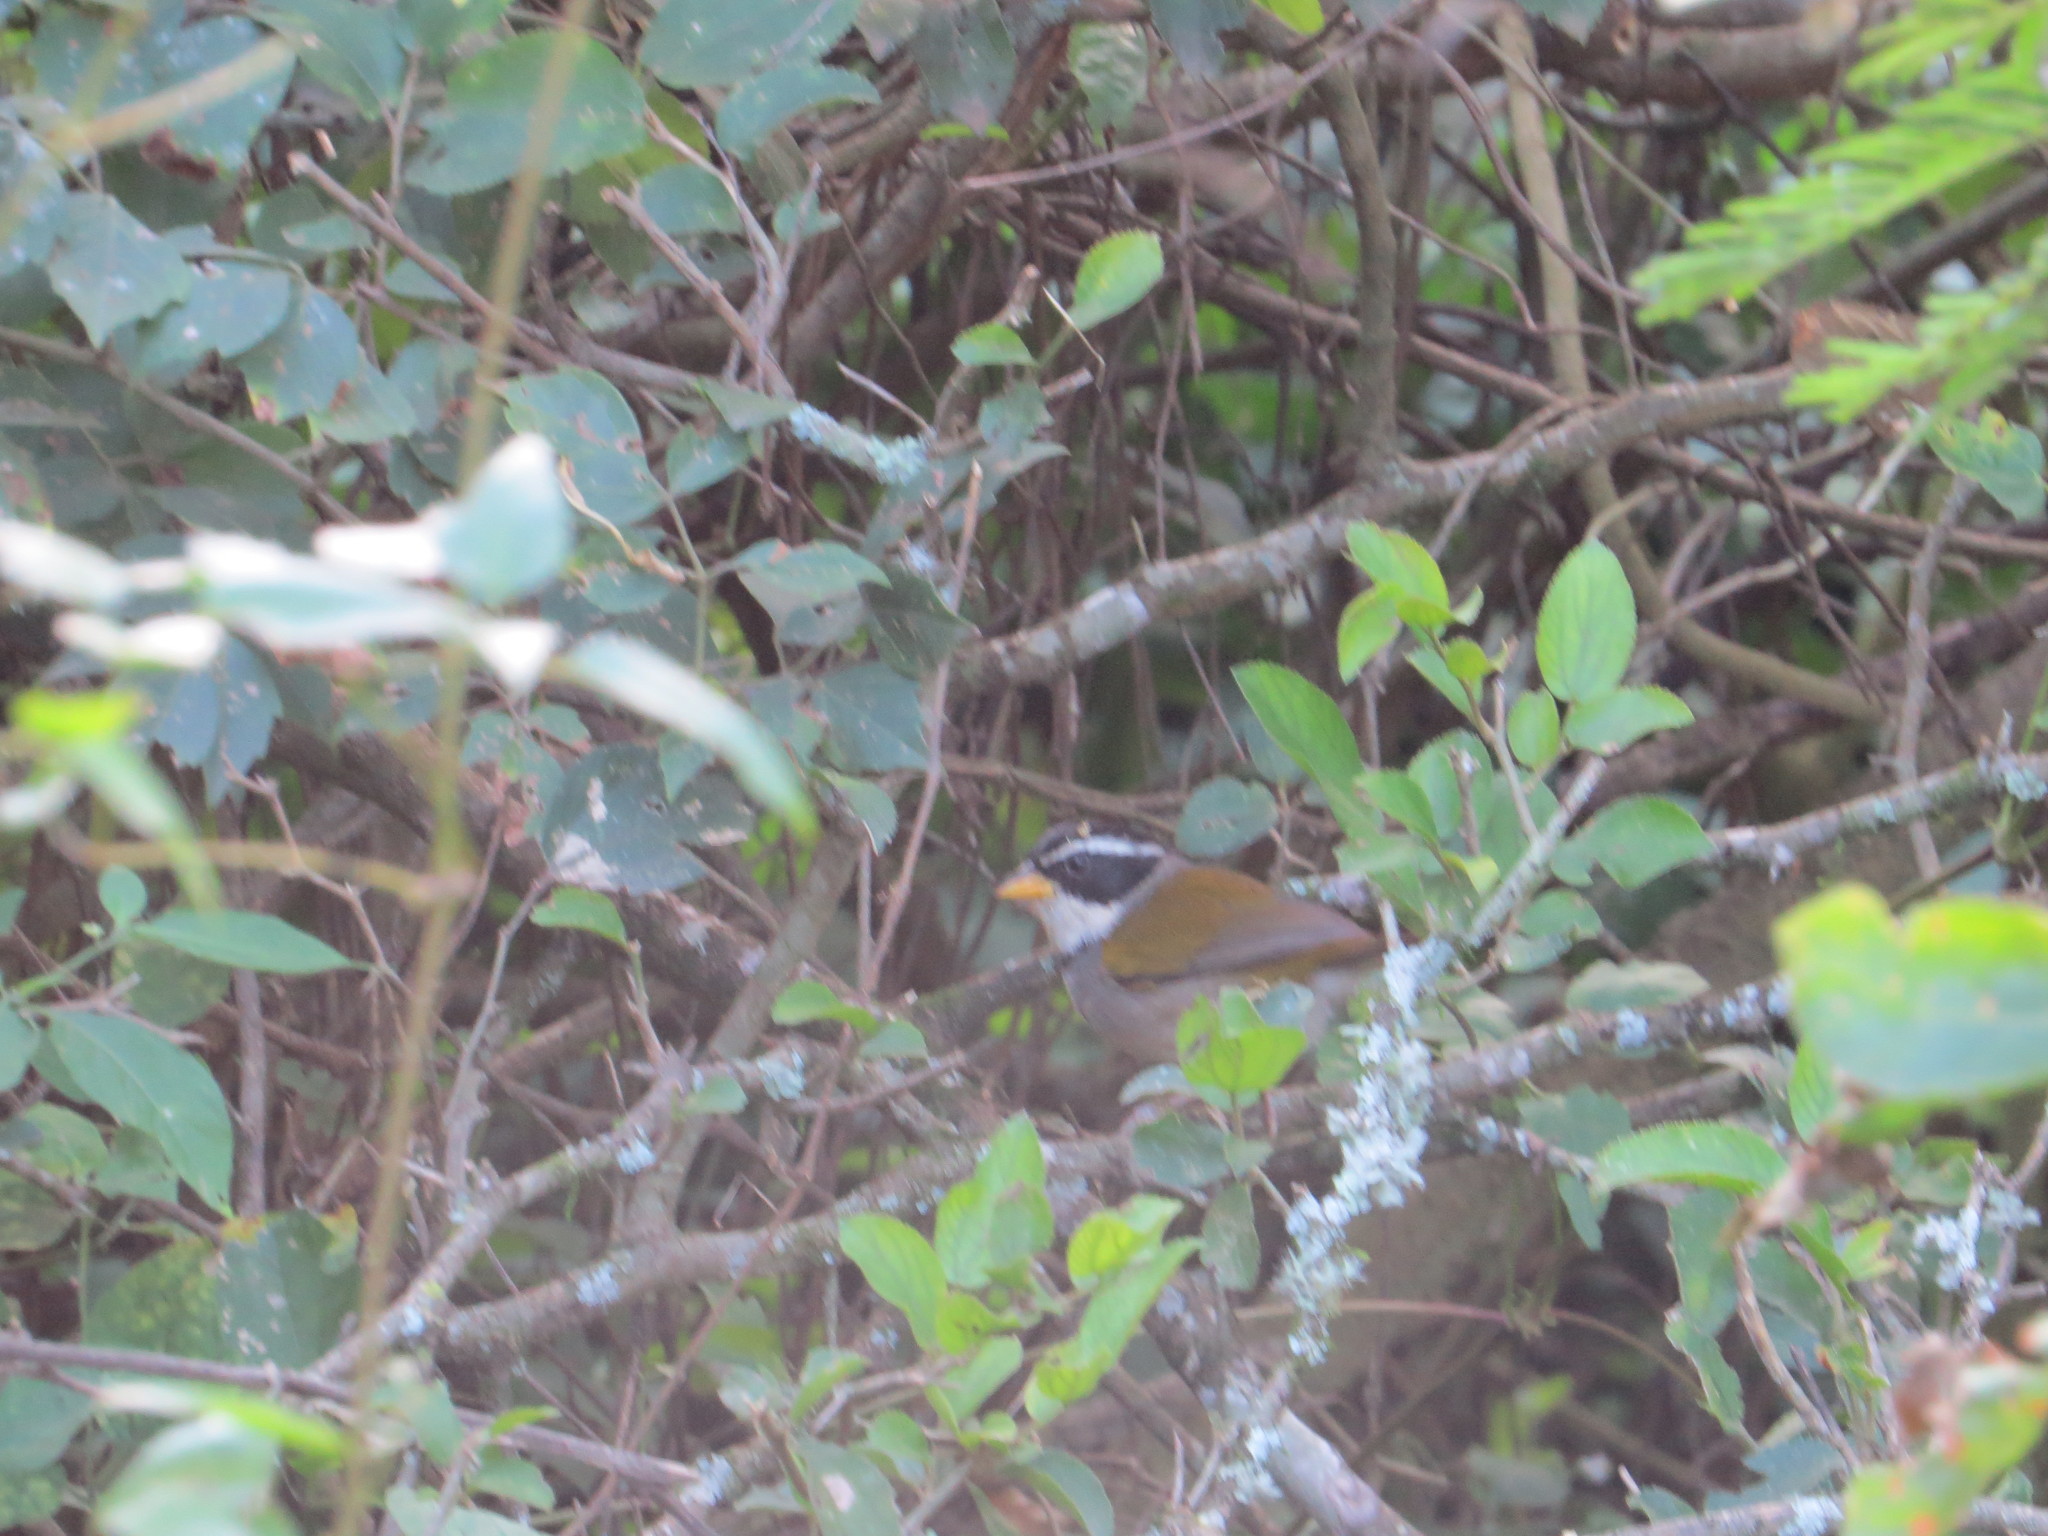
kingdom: Animalia
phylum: Chordata
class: Aves
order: Passeriformes
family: Passerellidae
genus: Arremon
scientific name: Arremon dorbignii
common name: Moss-backed sparrow
